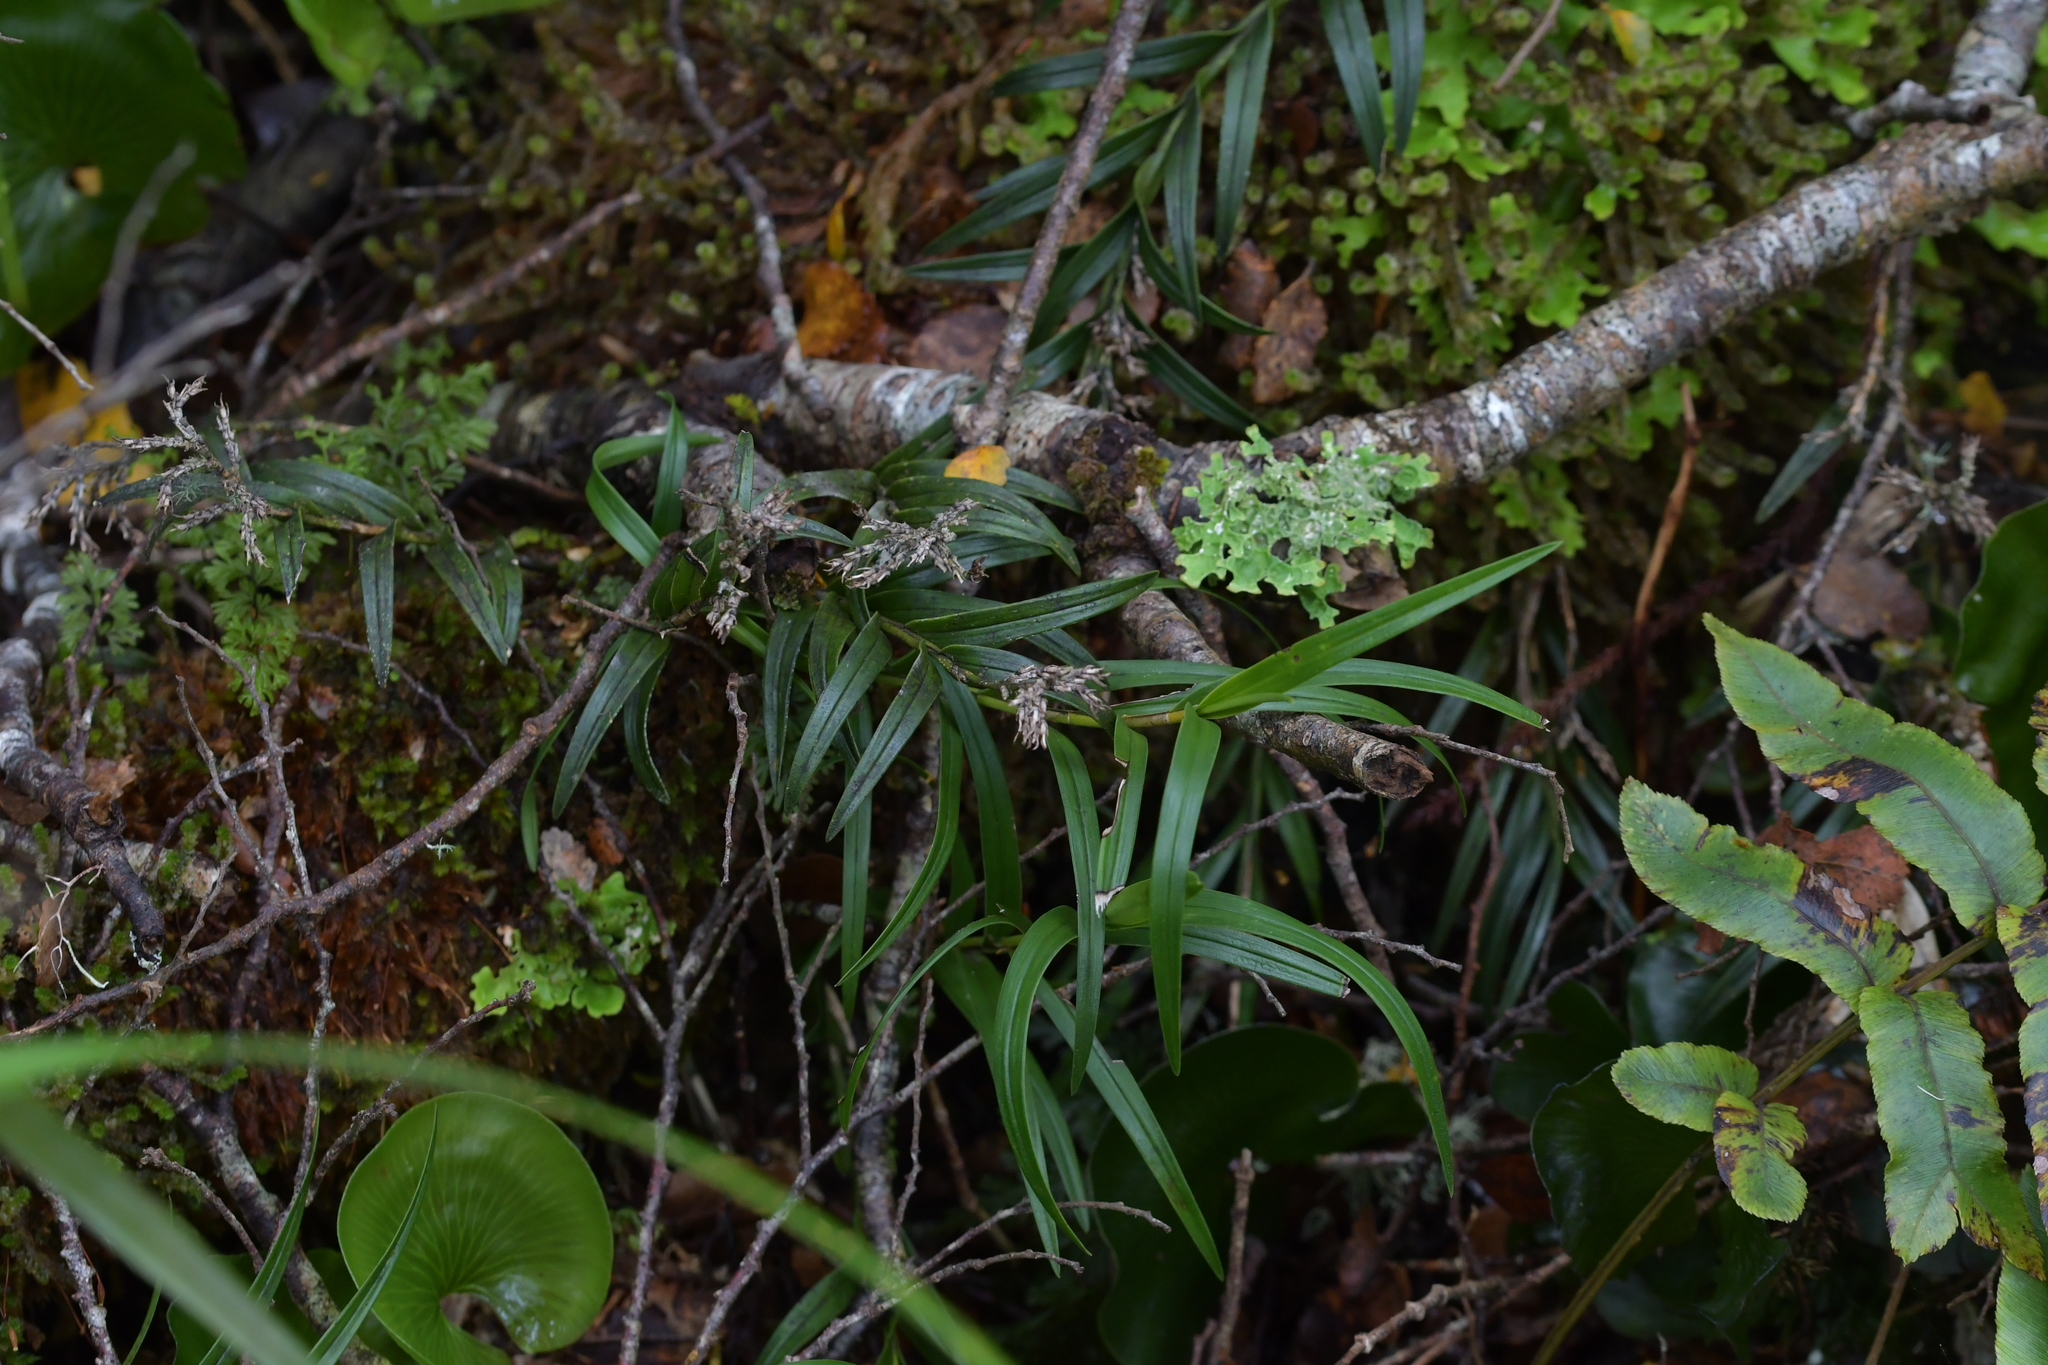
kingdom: Plantae
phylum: Tracheophyta
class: Liliopsida
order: Asparagales
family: Orchidaceae
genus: Earina
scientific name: Earina autumnalis
